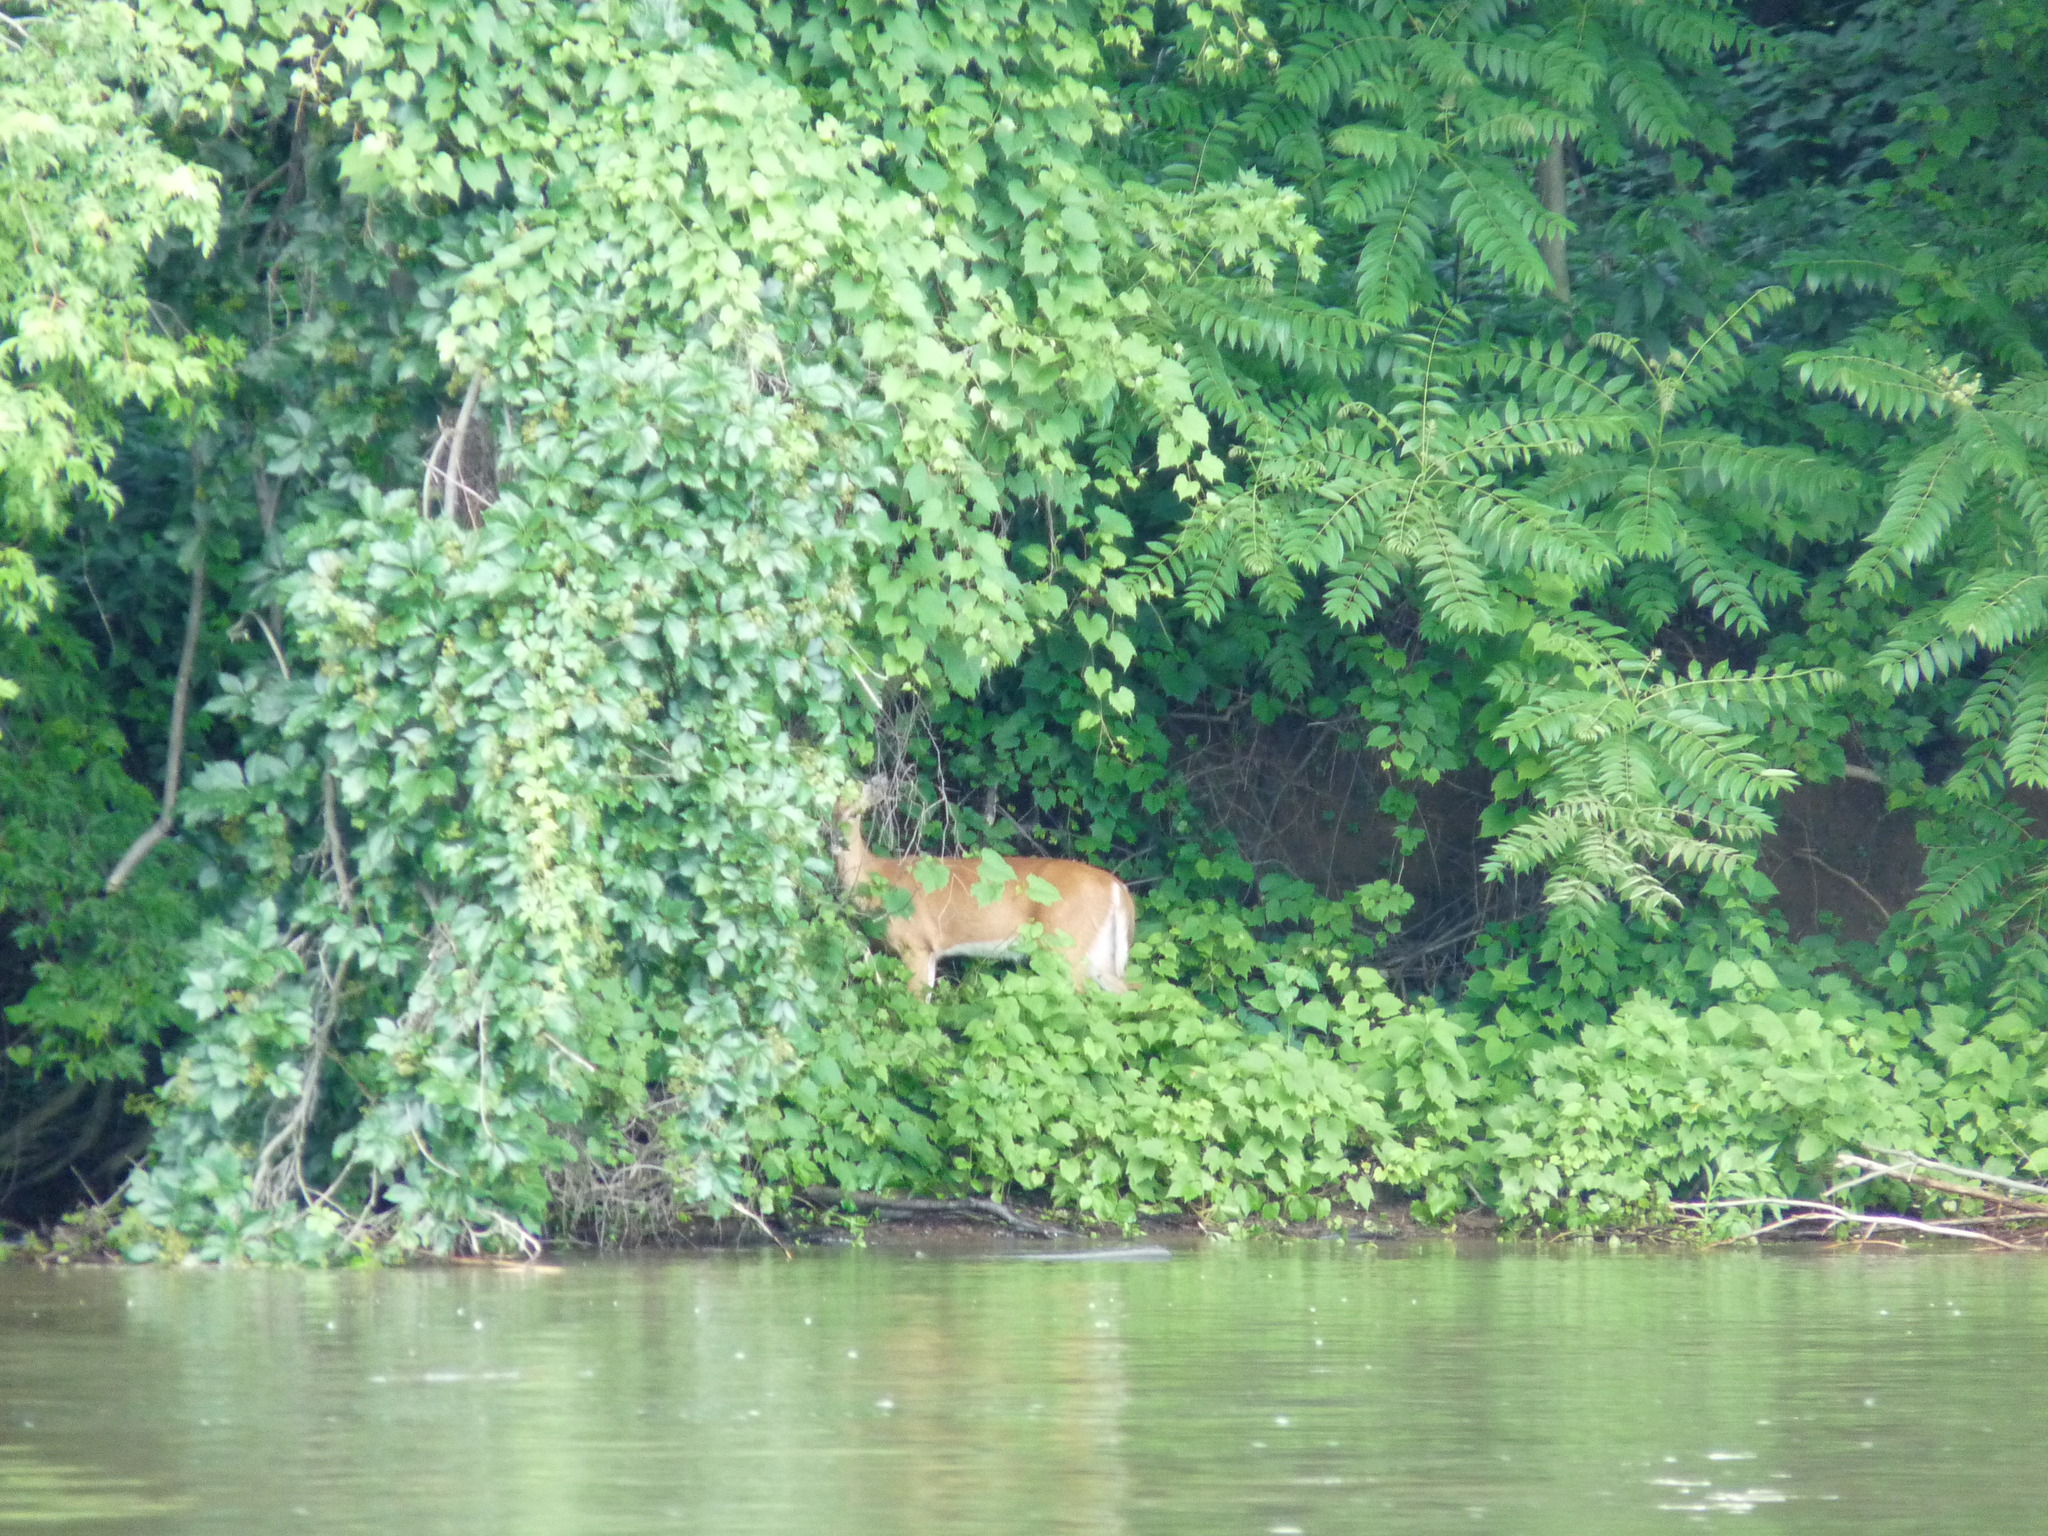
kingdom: Animalia
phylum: Chordata
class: Mammalia
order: Artiodactyla
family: Cervidae
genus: Odocoileus
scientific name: Odocoileus virginianus
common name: White-tailed deer
